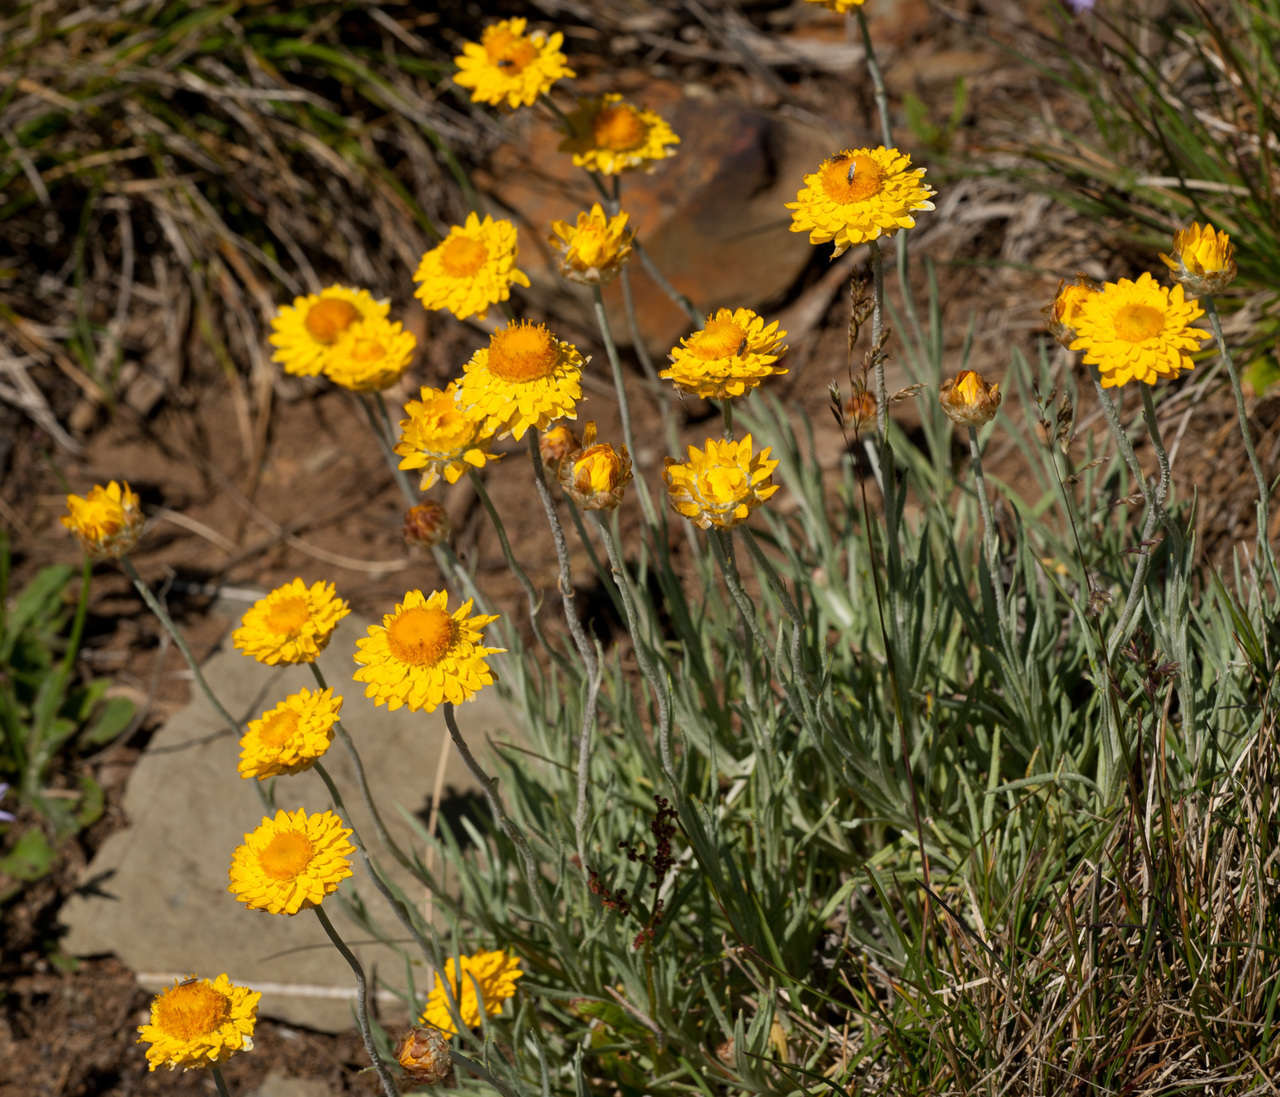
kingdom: Plantae
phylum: Tracheophyta
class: Magnoliopsida
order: Asterales
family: Asteraceae
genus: Leucochrysum
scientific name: Leucochrysum albicans
